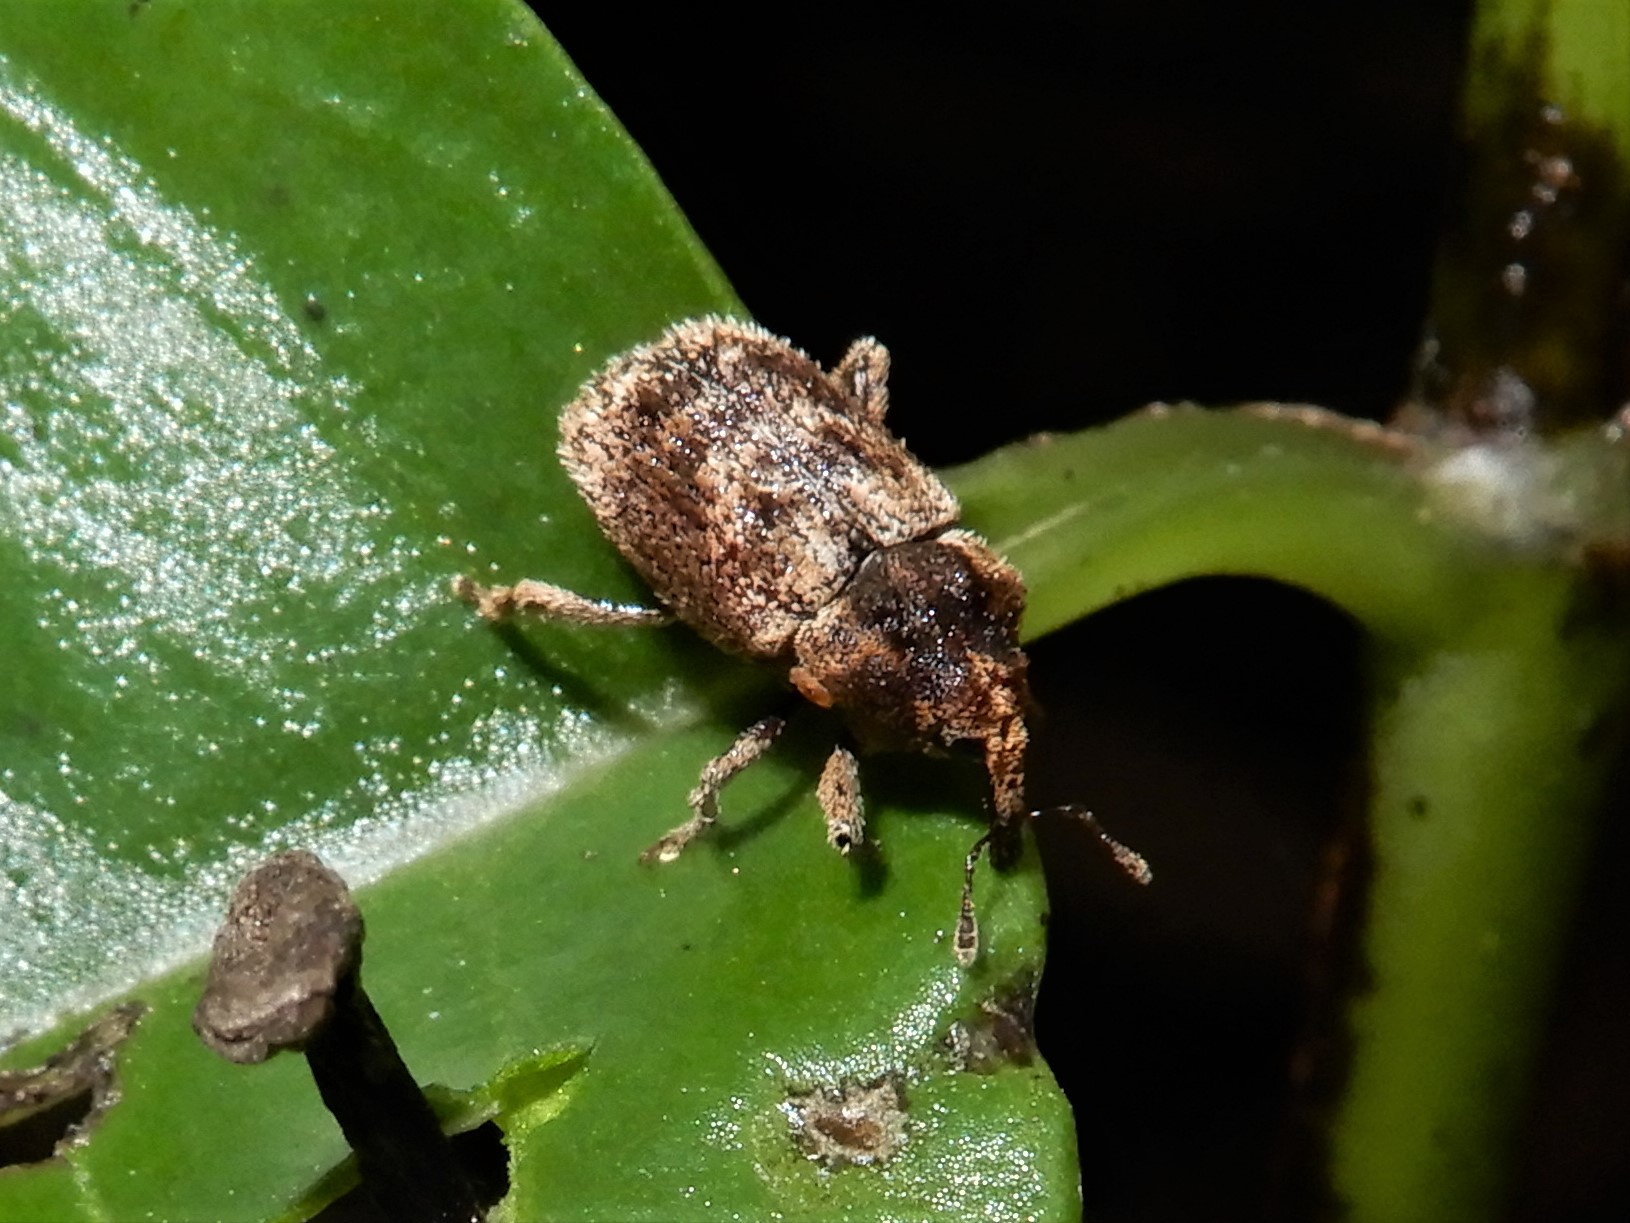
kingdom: Animalia
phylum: Arthropoda
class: Insecta
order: Coleoptera
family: Curculionidae
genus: Mesoreda
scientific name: Mesoreda sulcifrons
